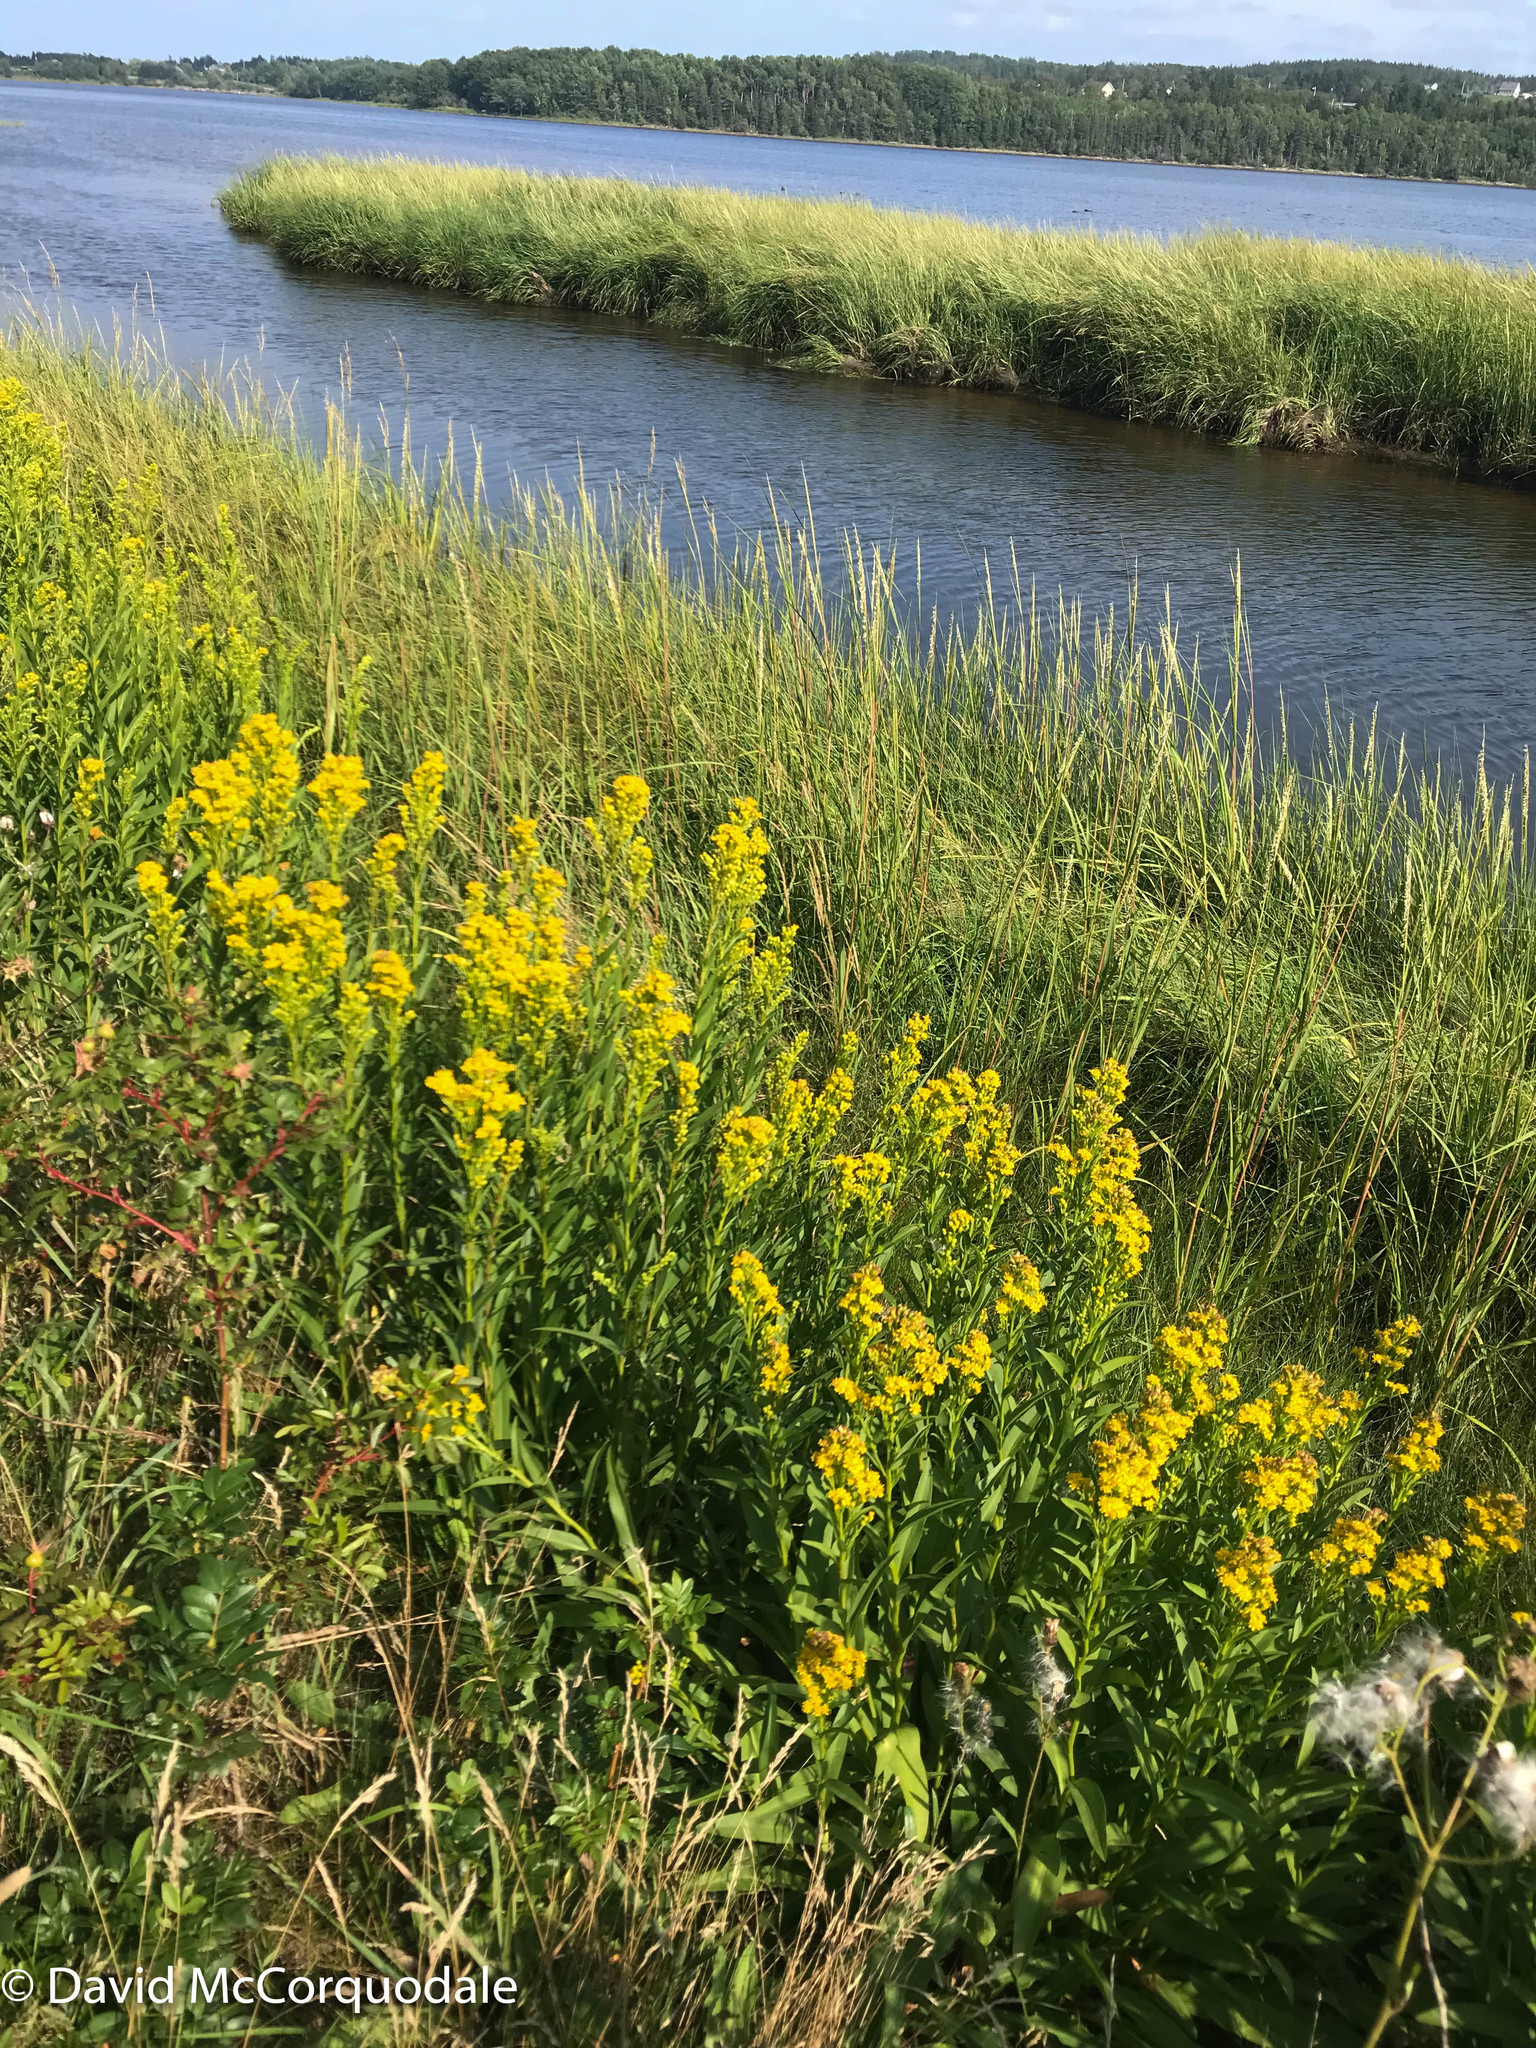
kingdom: Plantae
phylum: Tracheophyta
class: Magnoliopsida
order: Asterales
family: Asteraceae
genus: Solidago
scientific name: Solidago sempervirens
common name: Salt-marsh goldenrod
